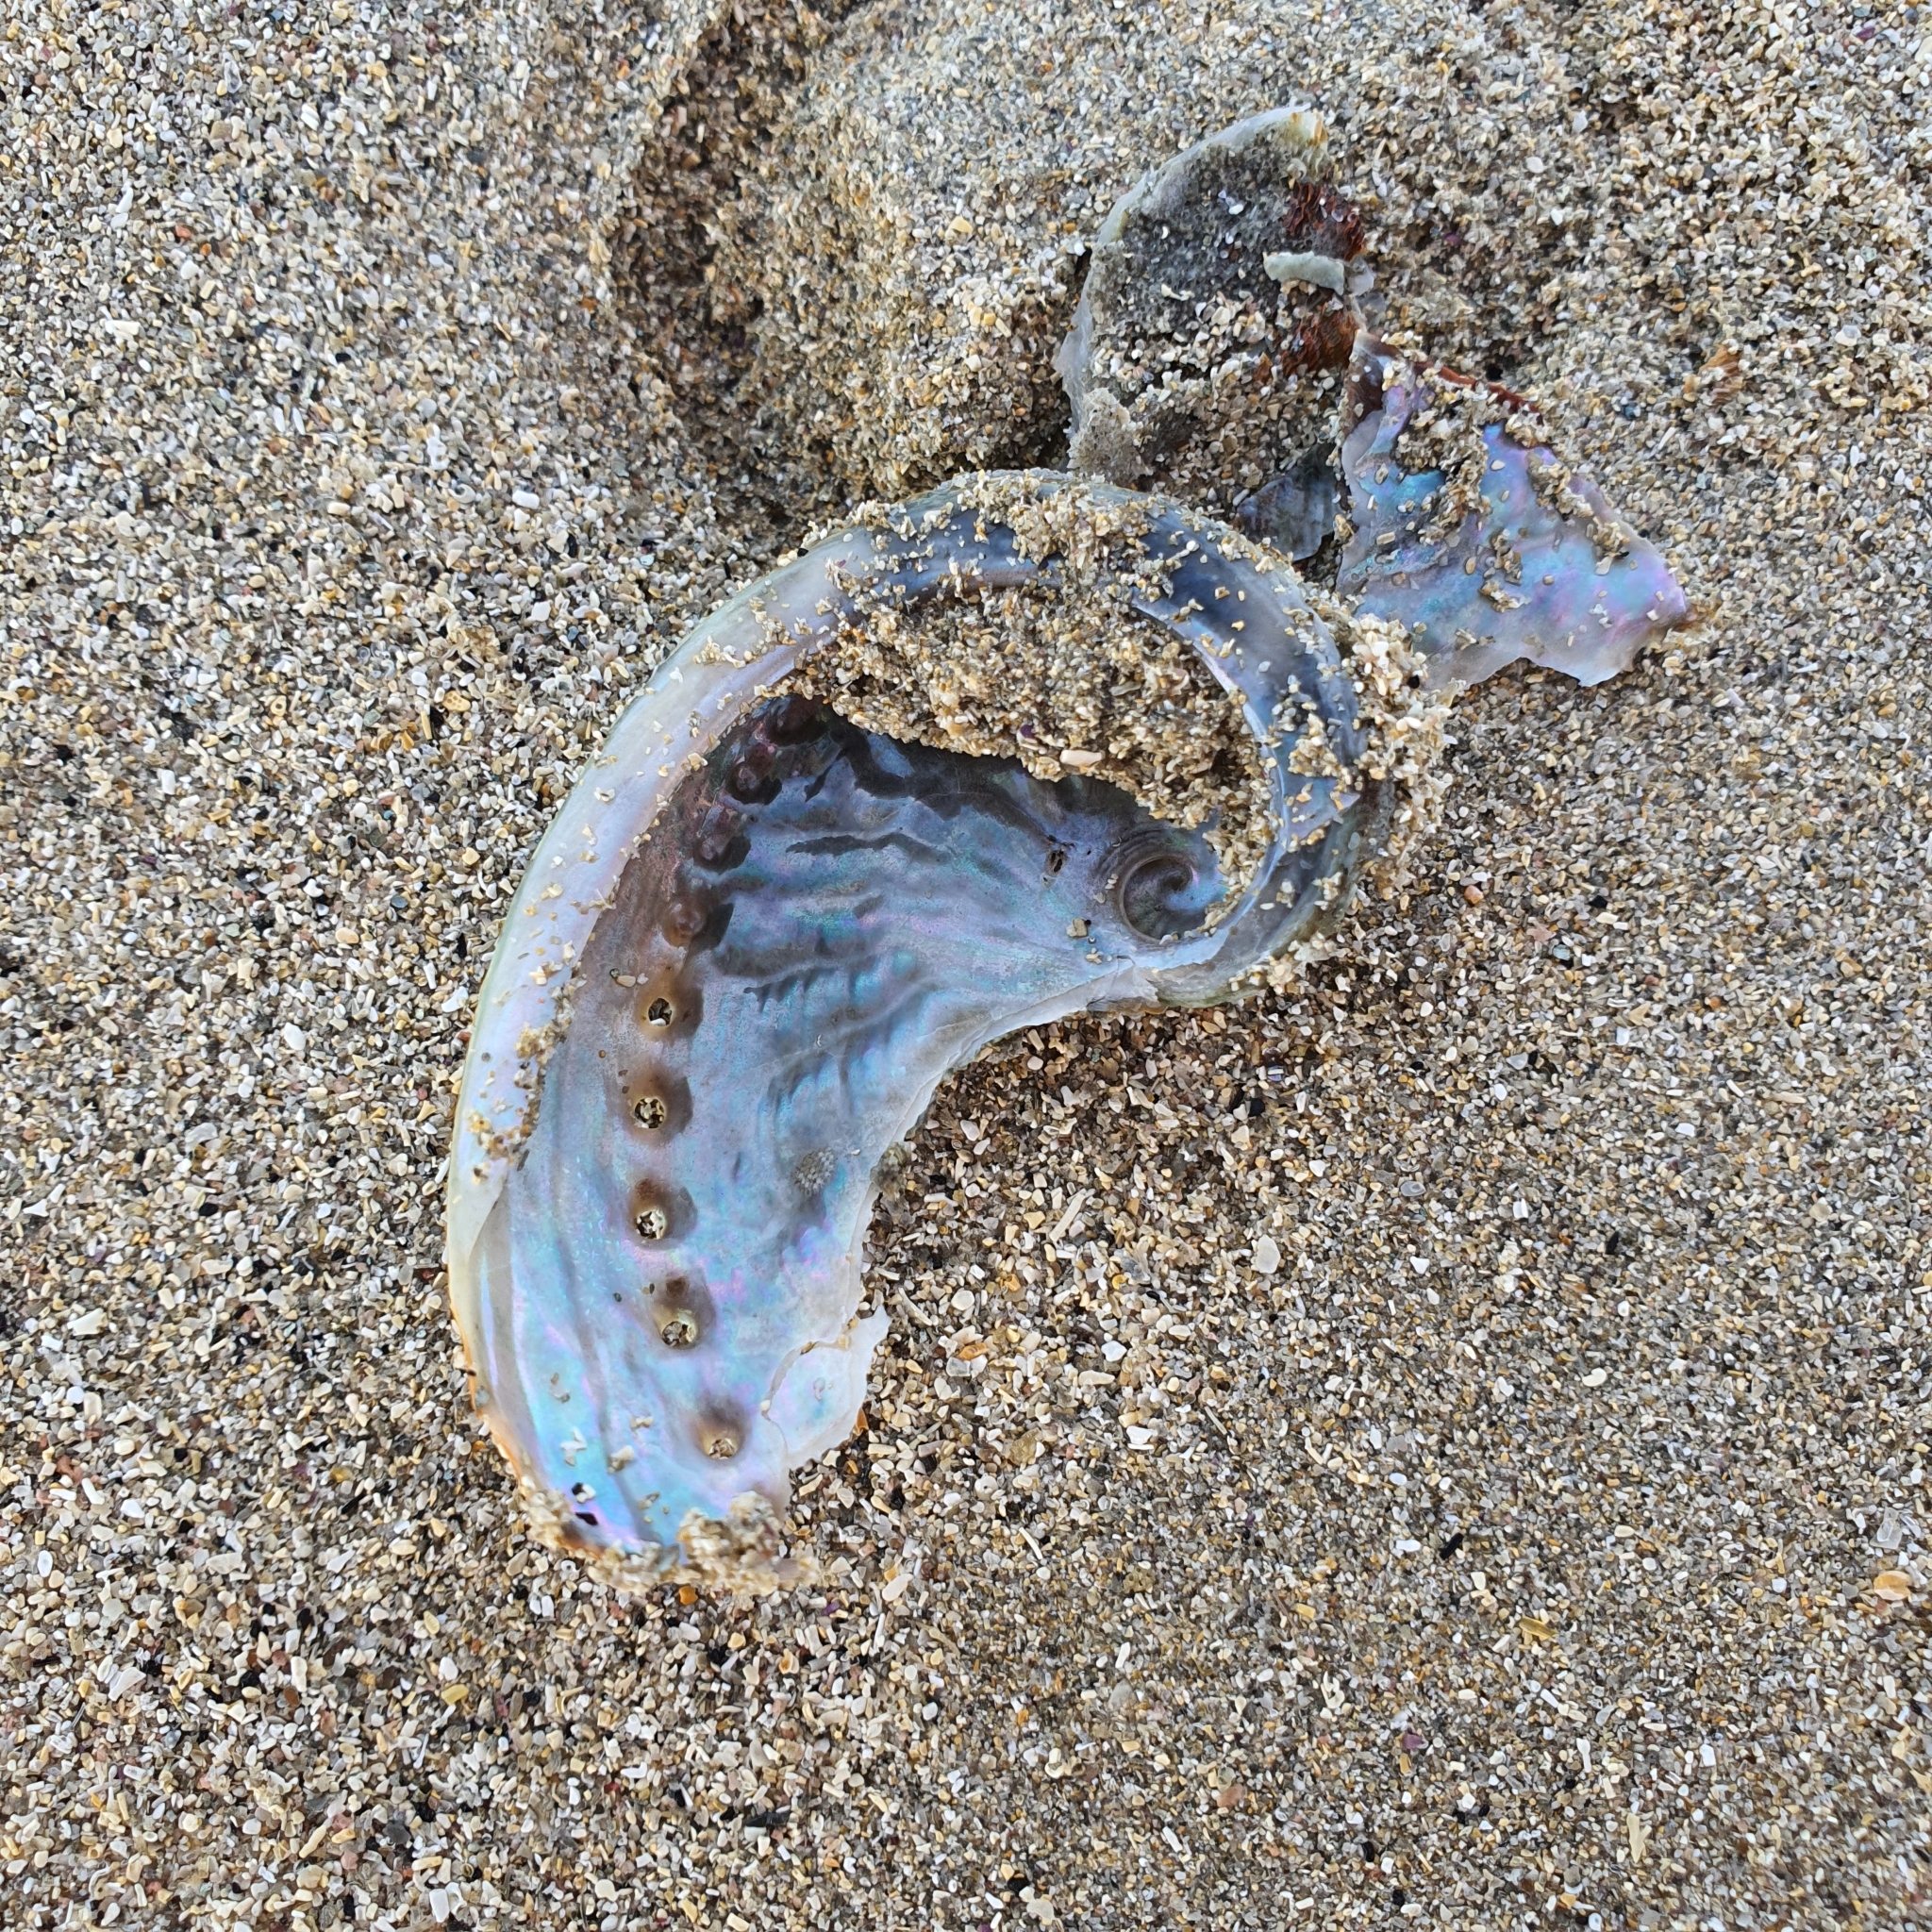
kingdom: Animalia
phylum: Mollusca
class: Gastropoda
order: Lepetellida
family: Haliotidae
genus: Haliotis
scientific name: Haliotis rubra
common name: Blacklip abalone
